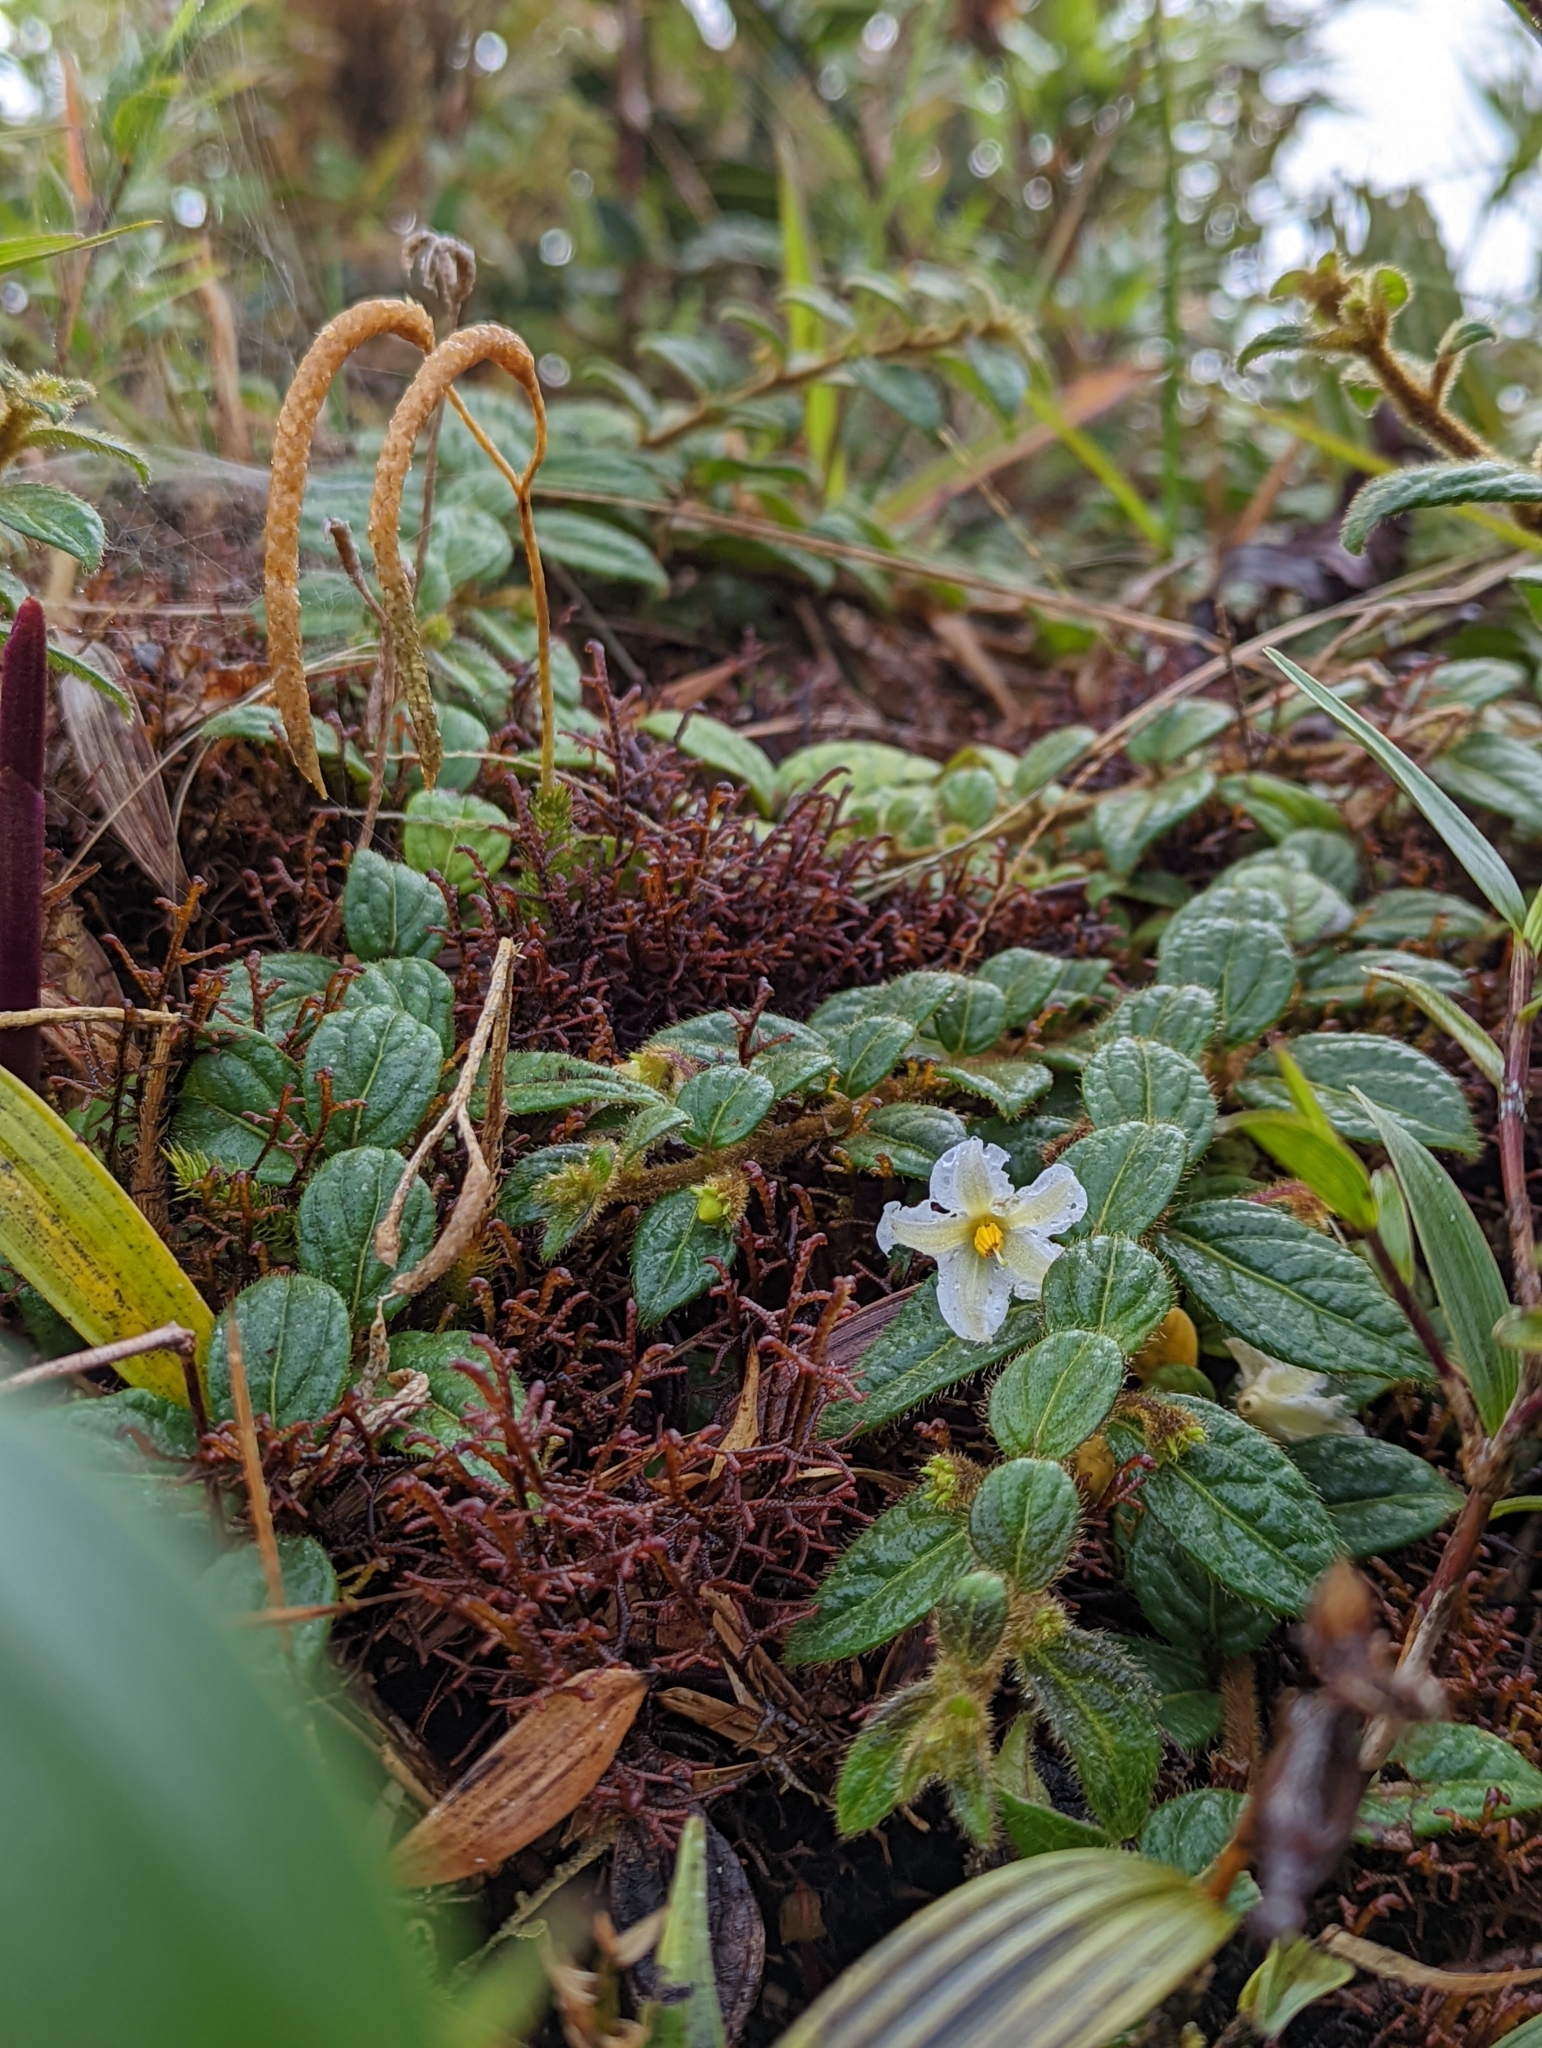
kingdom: Plantae
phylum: Tracheophyta
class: Magnoliopsida
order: Solanales
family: Solanaceae
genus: Lycianthes
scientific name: Lycianthes profunderugosa
